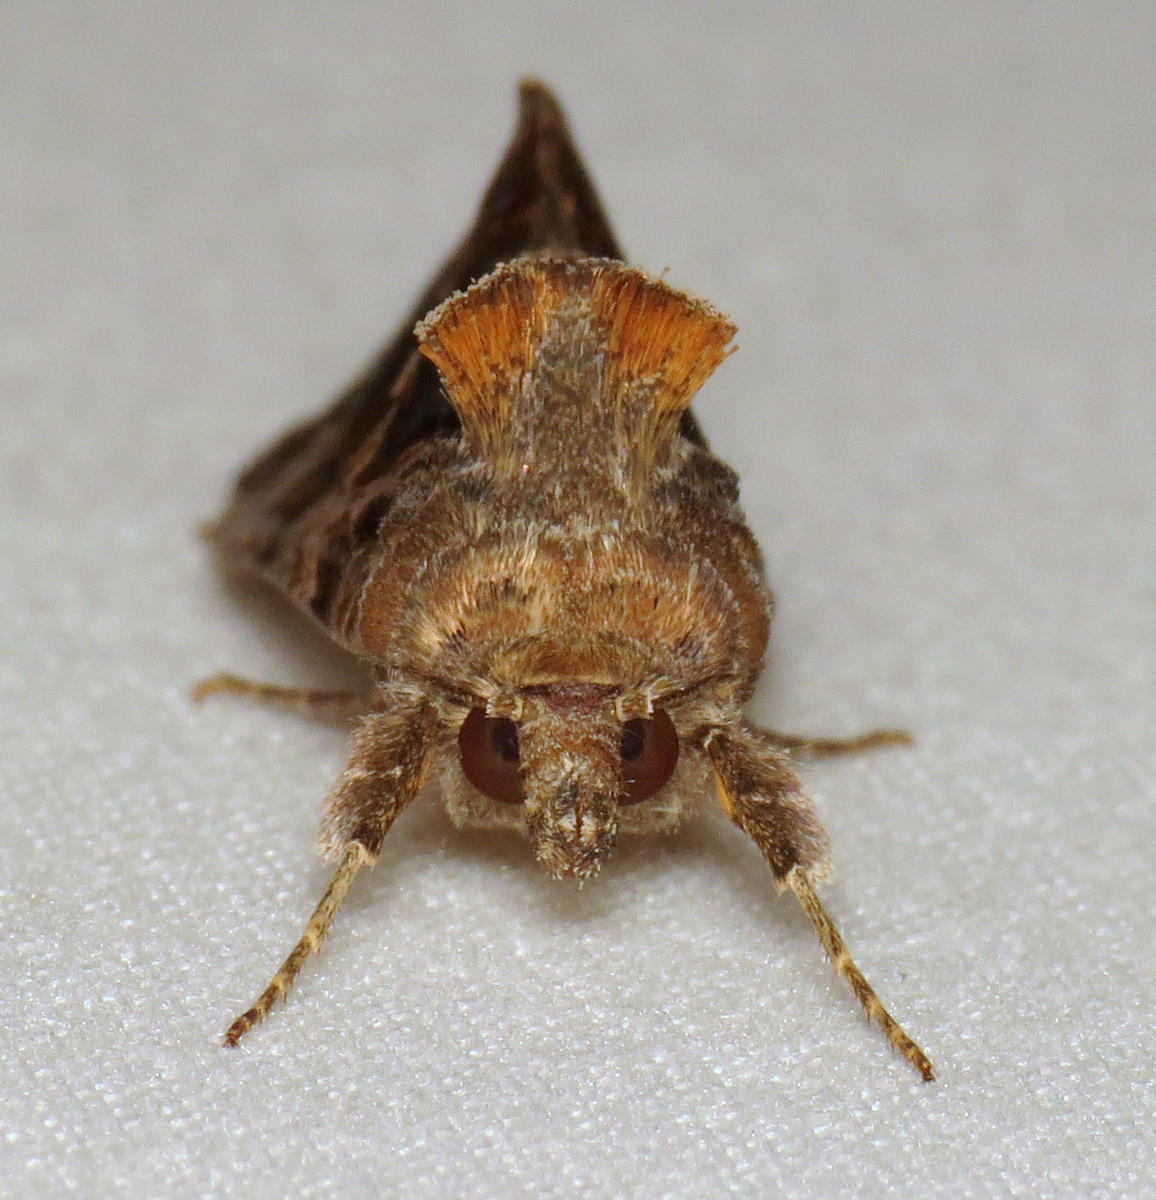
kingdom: Animalia
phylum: Arthropoda
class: Insecta
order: Lepidoptera
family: Noctuidae
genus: Chrysodeixis
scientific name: Chrysodeixis includens
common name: Cutworm moth
